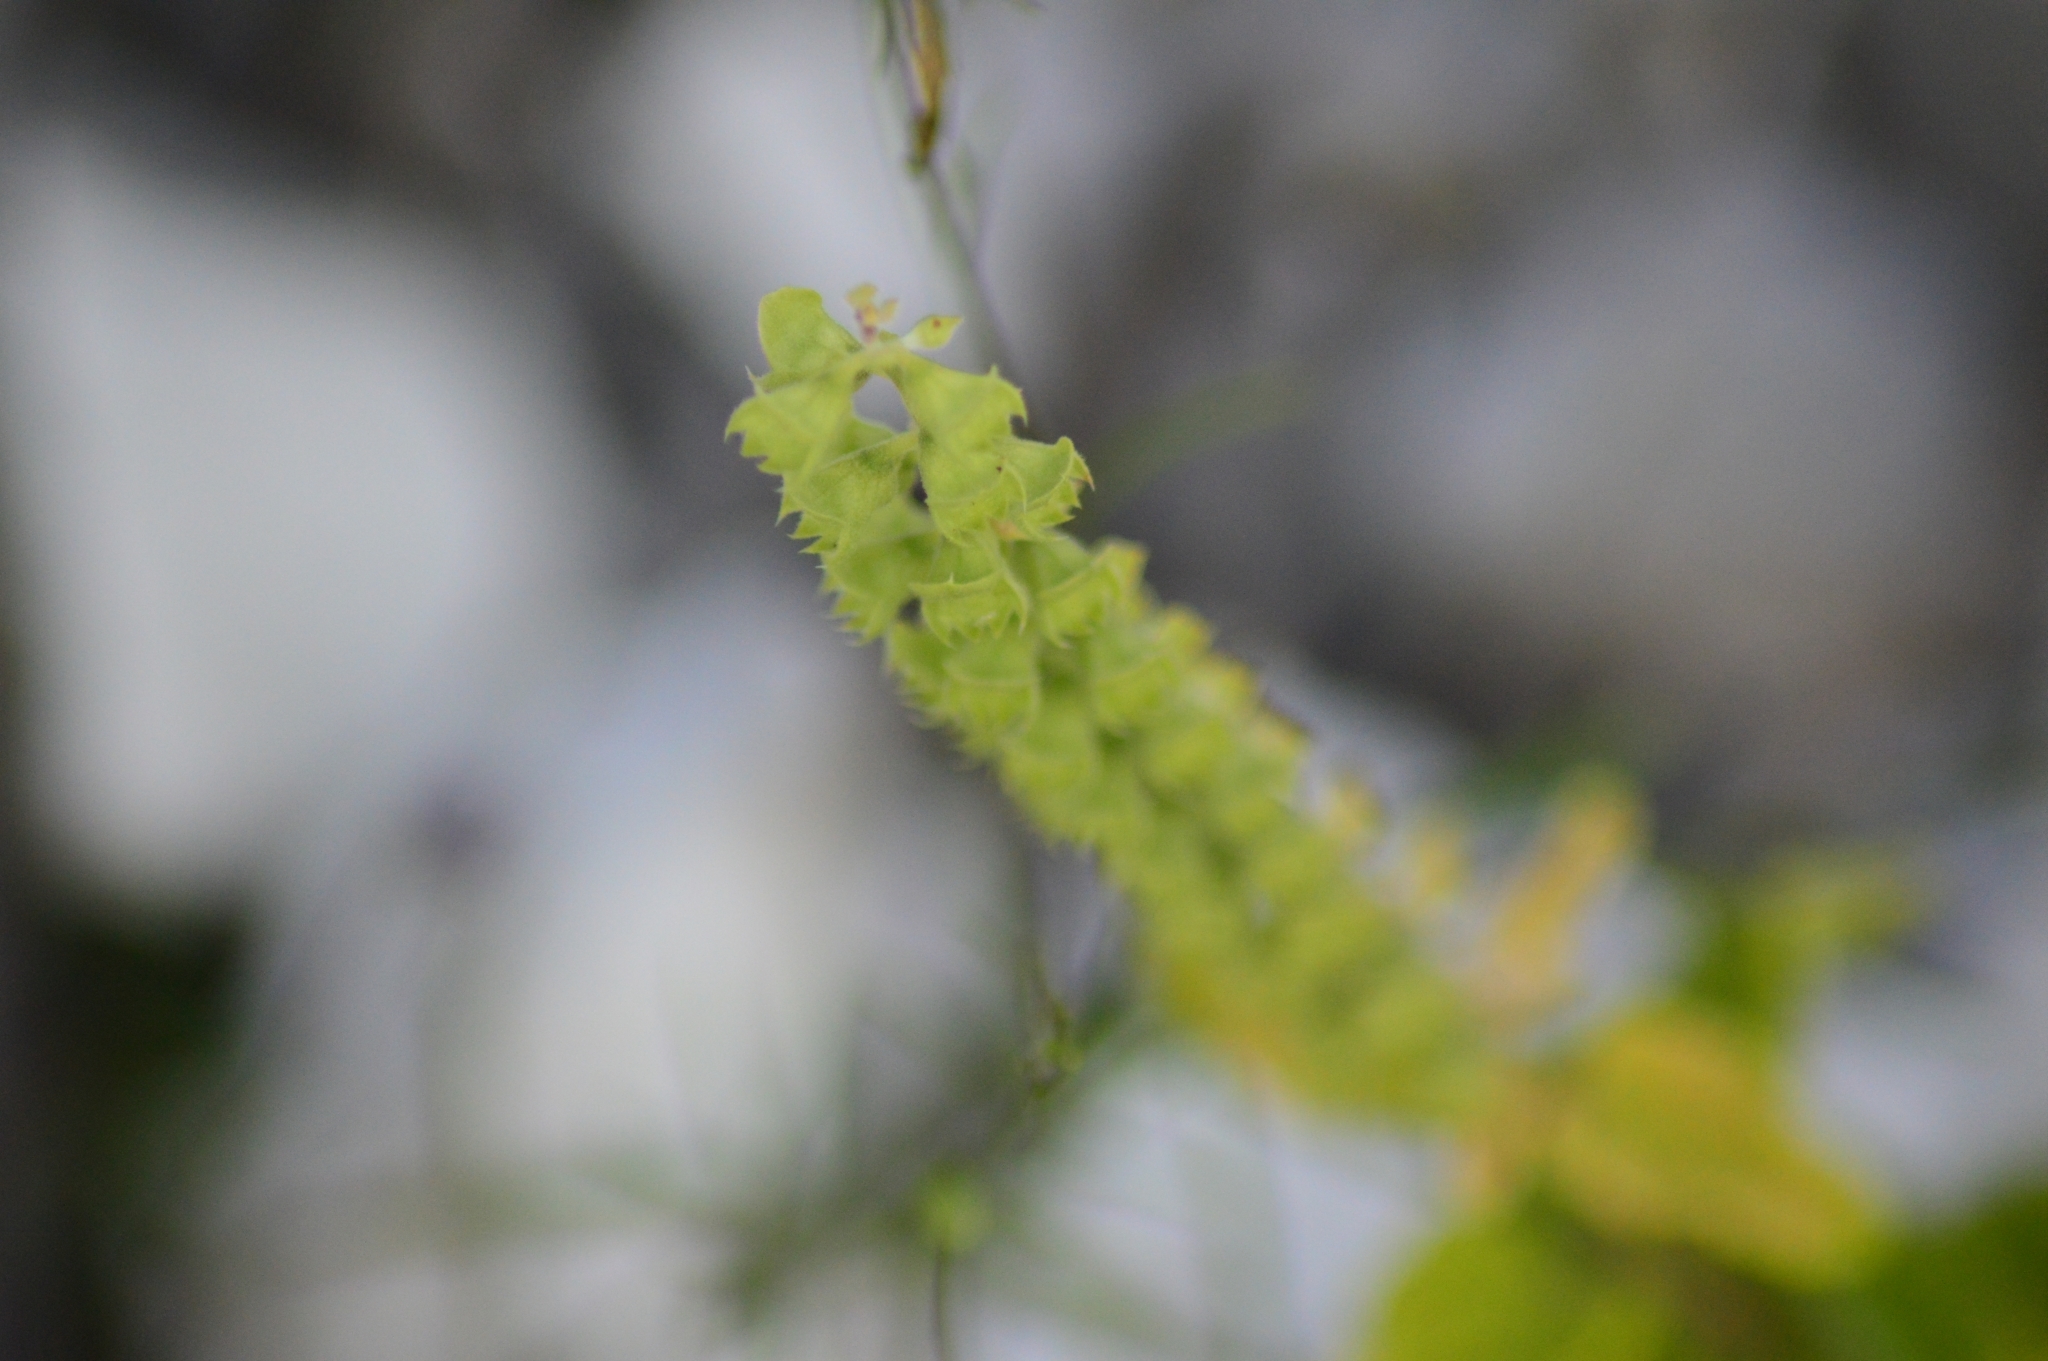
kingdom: Plantae
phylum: Tracheophyta
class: Magnoliopsida
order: Lamiales
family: Lamiaceae
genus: Teucrium
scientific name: Teucrium scorodonia
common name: Woodland germander
